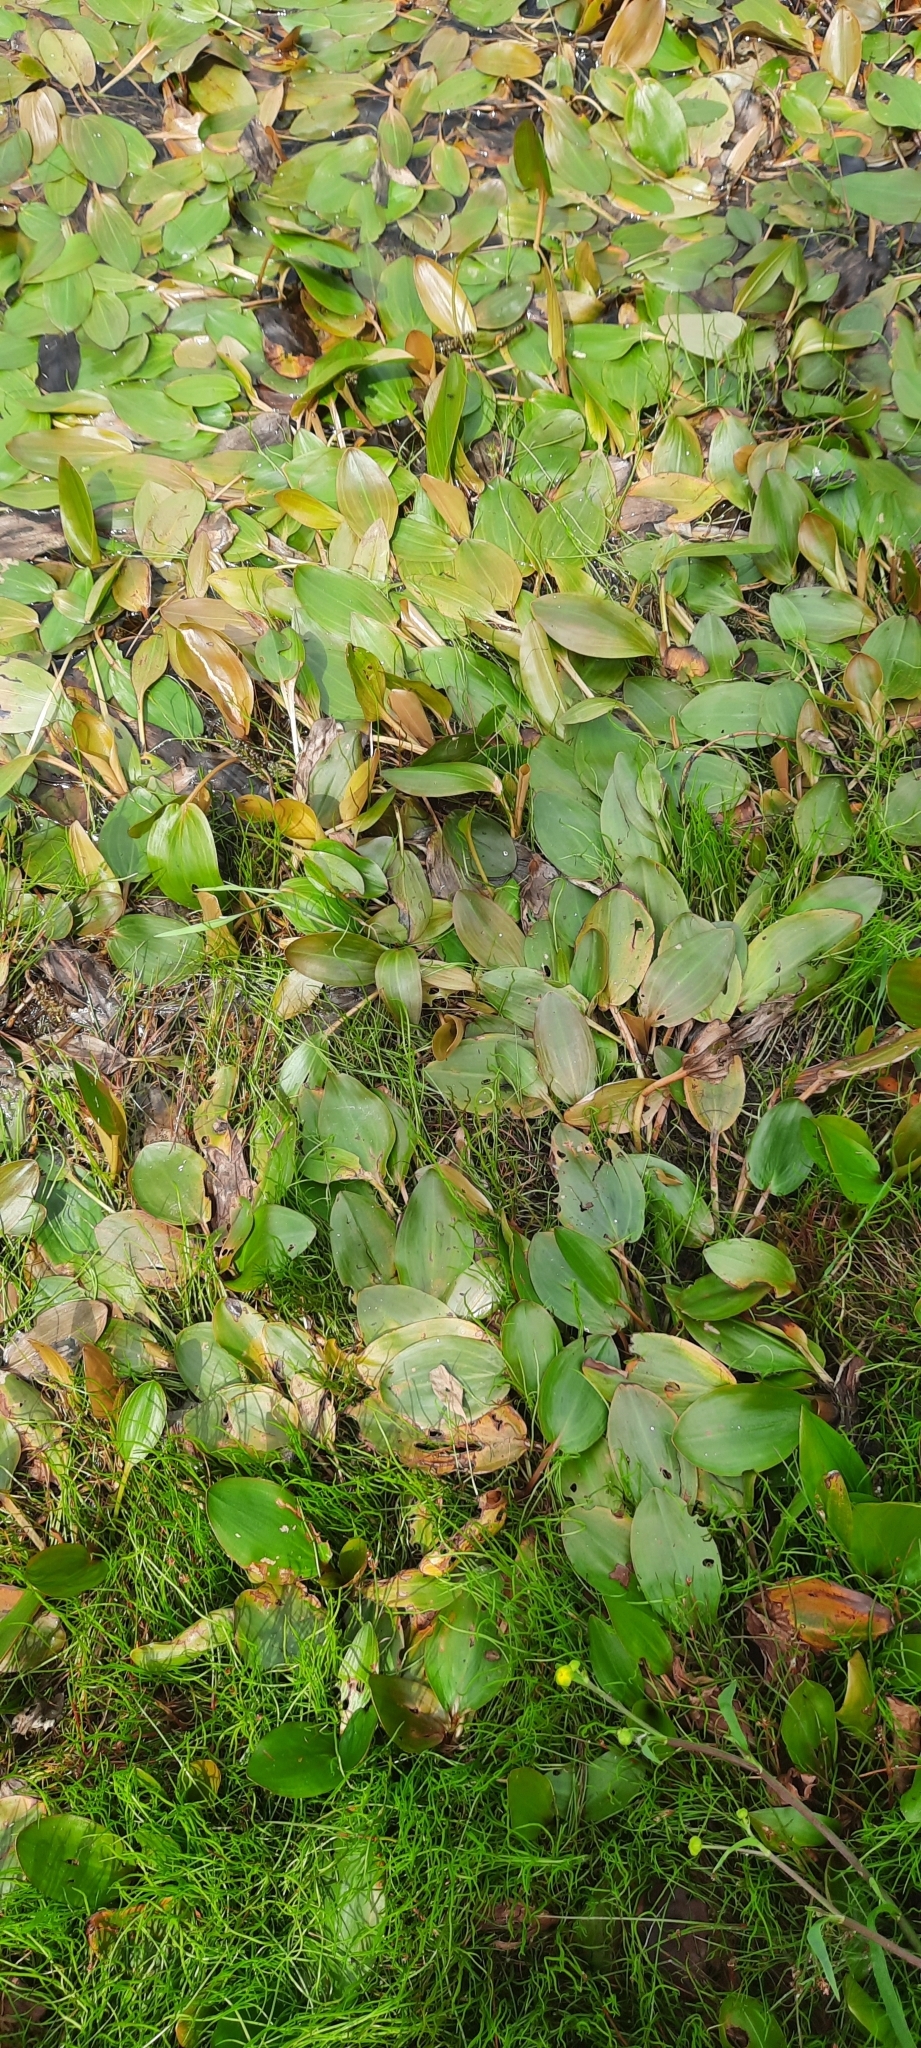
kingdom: Plantae
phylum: Tracheophyta
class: Liliopsida
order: Alismatales
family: Potamogetonaceae
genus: Potamogeton
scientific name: Potamogeton polygonifolius
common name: Bog pondweed
